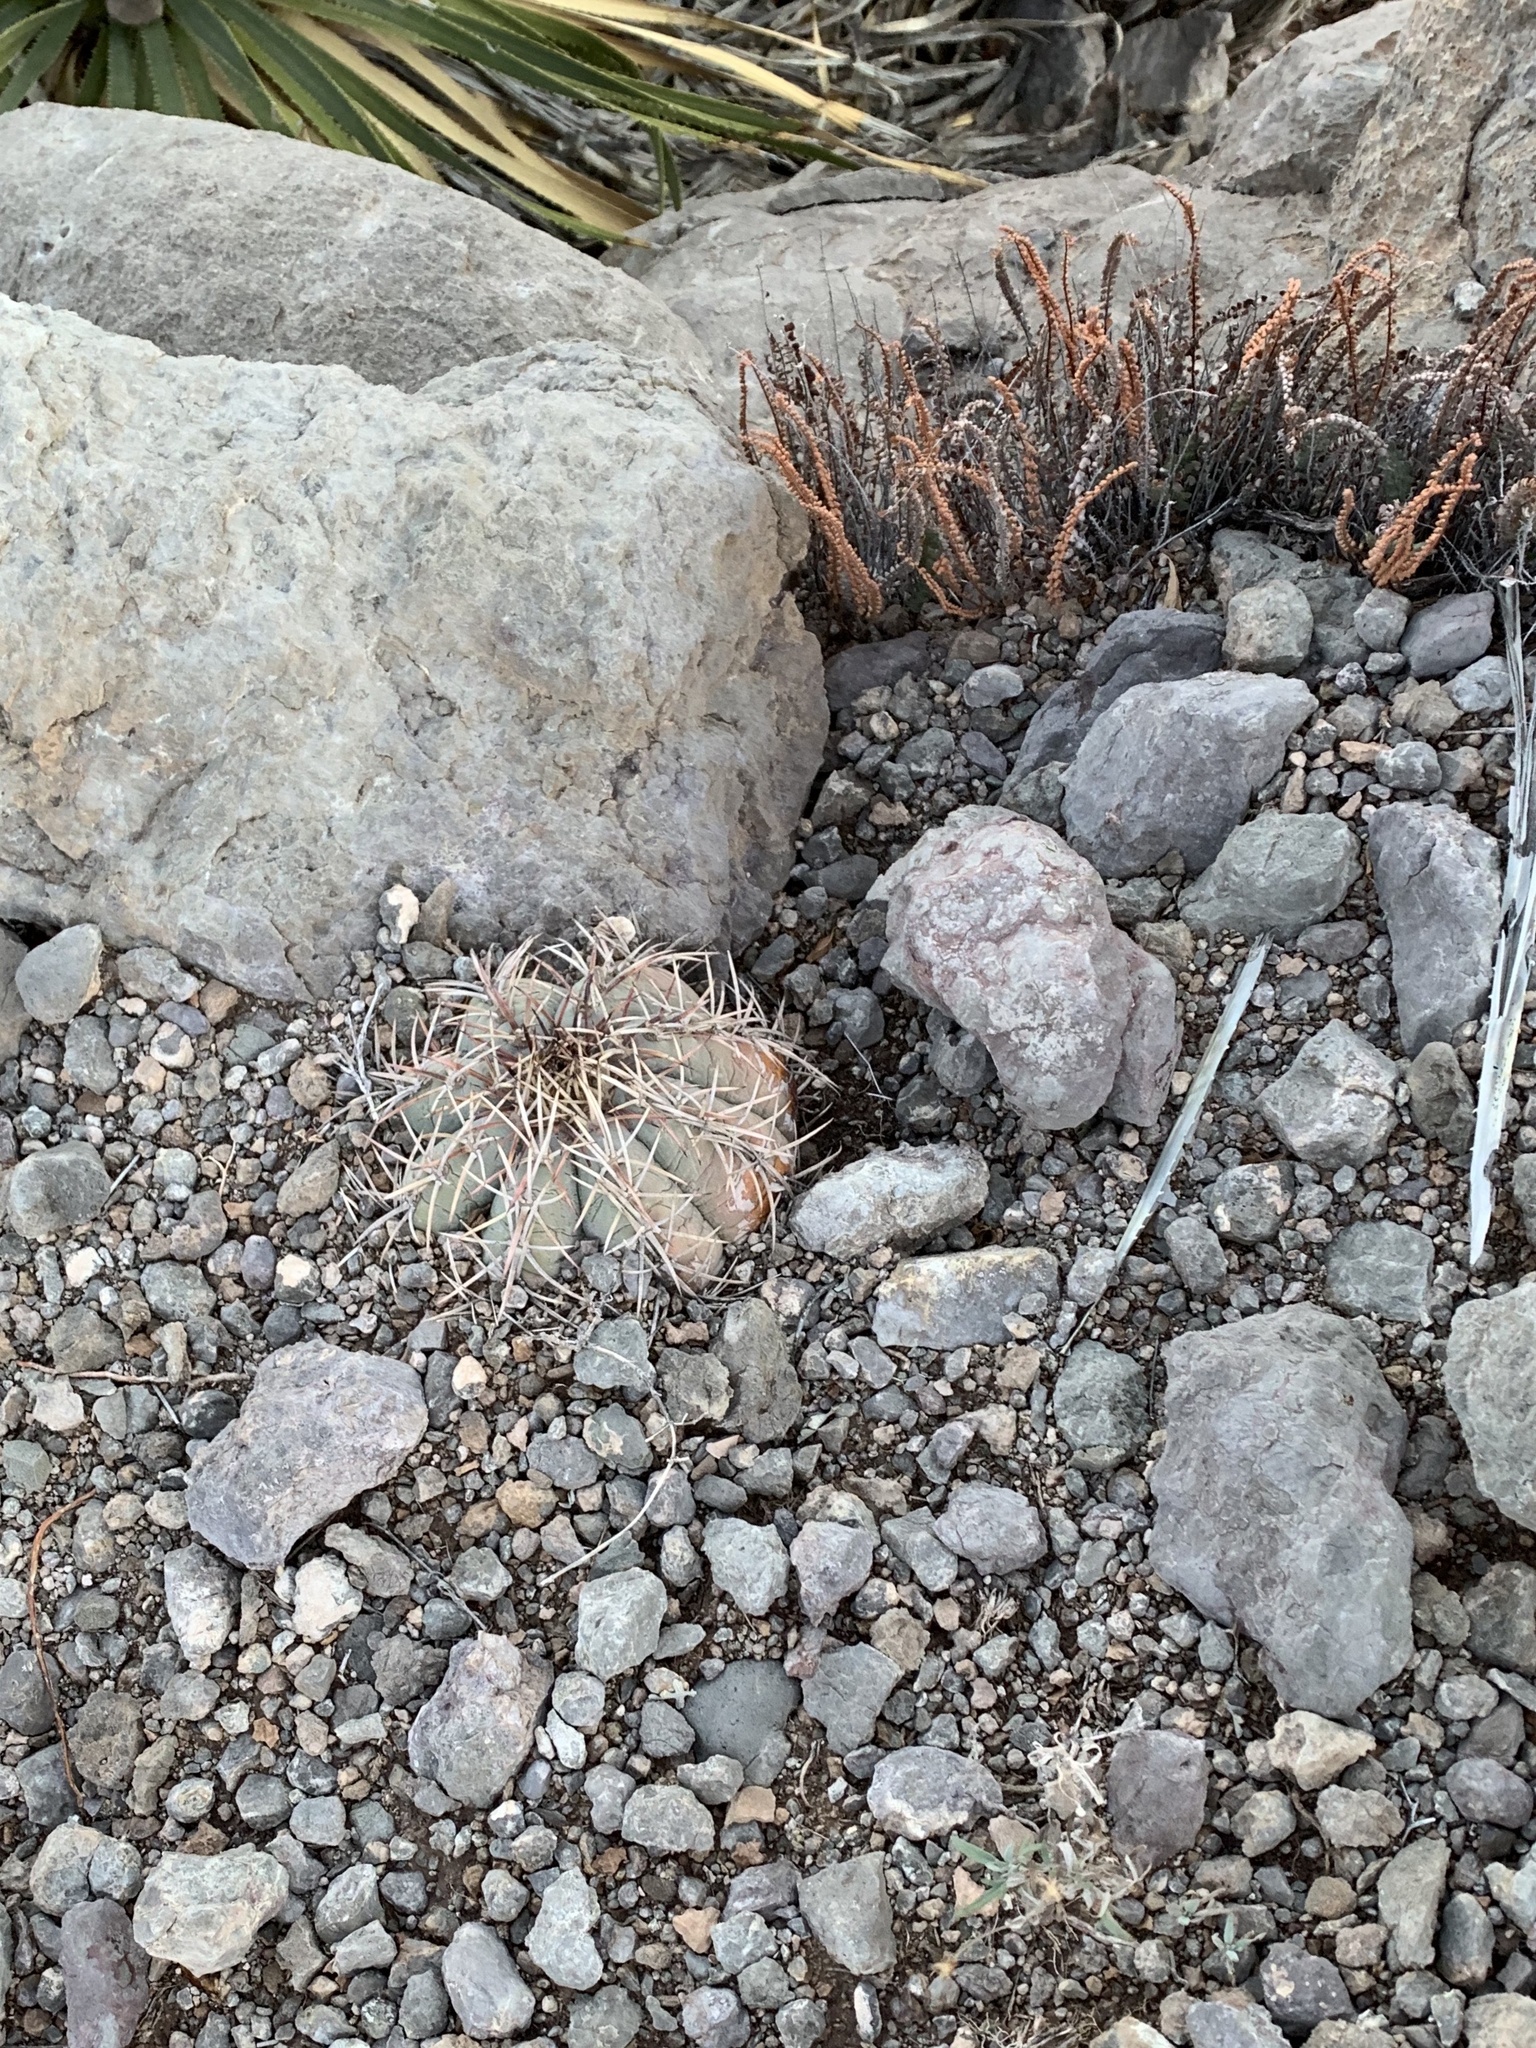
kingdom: Plantae
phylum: Tracheophyta
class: Magnoliopsida
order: Caryophyllales
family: Cactaceae
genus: Echinocactus
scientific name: Echinocactus horizonthalonius
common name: Devilshead
